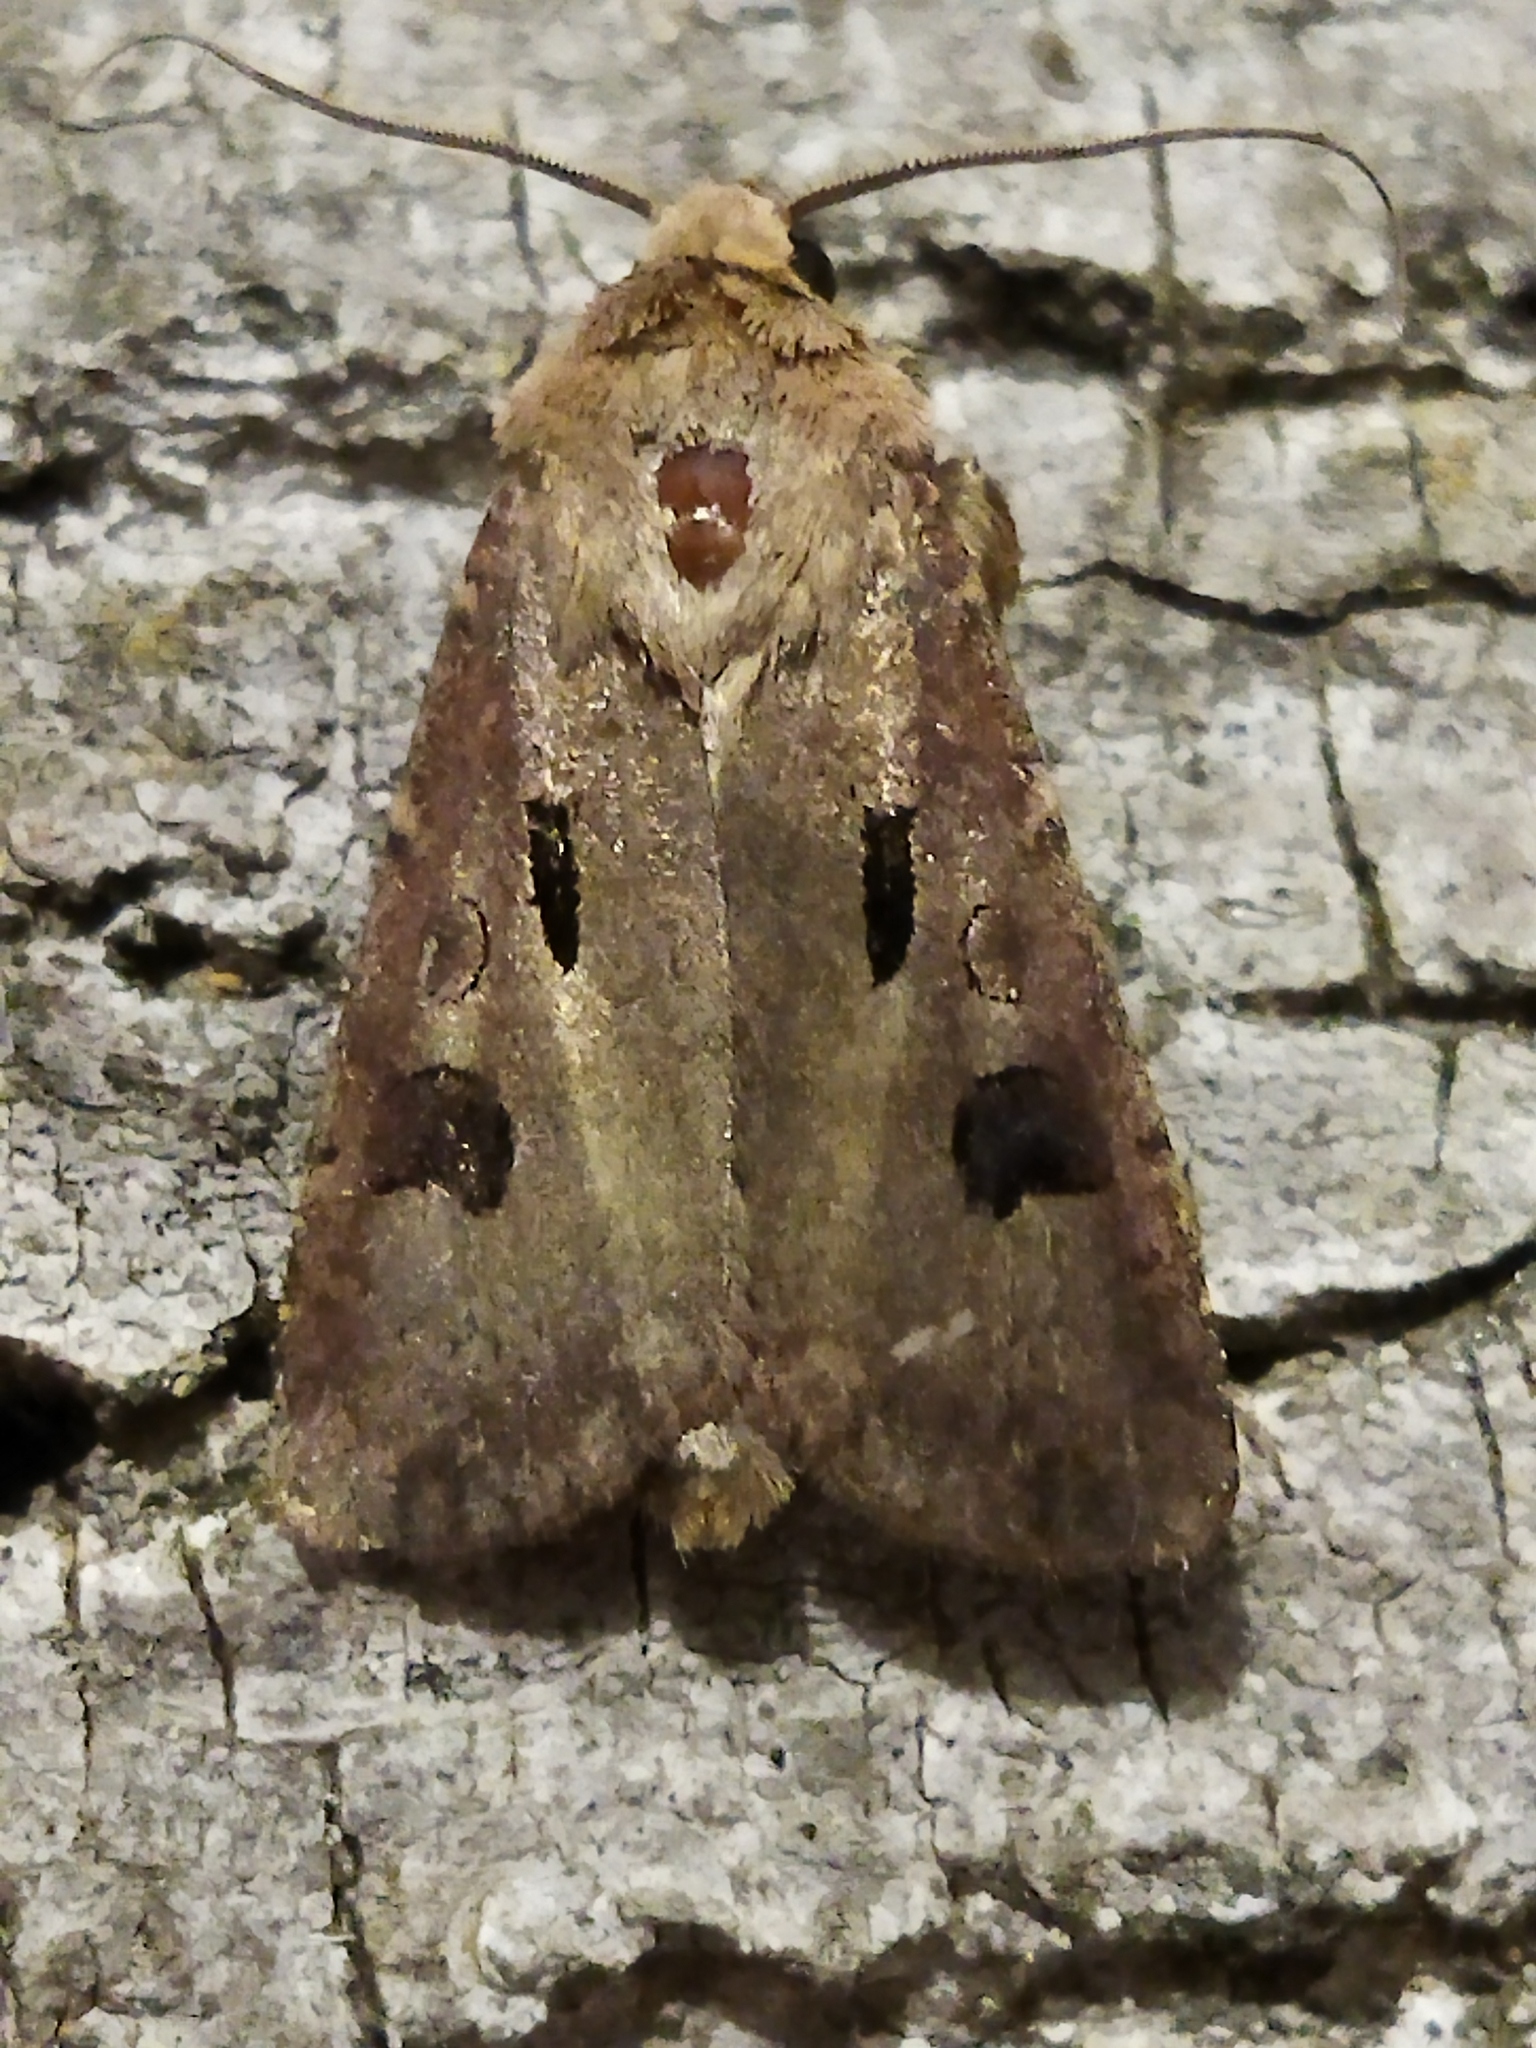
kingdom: Animalia
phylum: Arthropoda
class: Insecta
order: Lepidoptera
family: Noctuidae
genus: Agrotis
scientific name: Agrotis exclamationis
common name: Heart and dart
